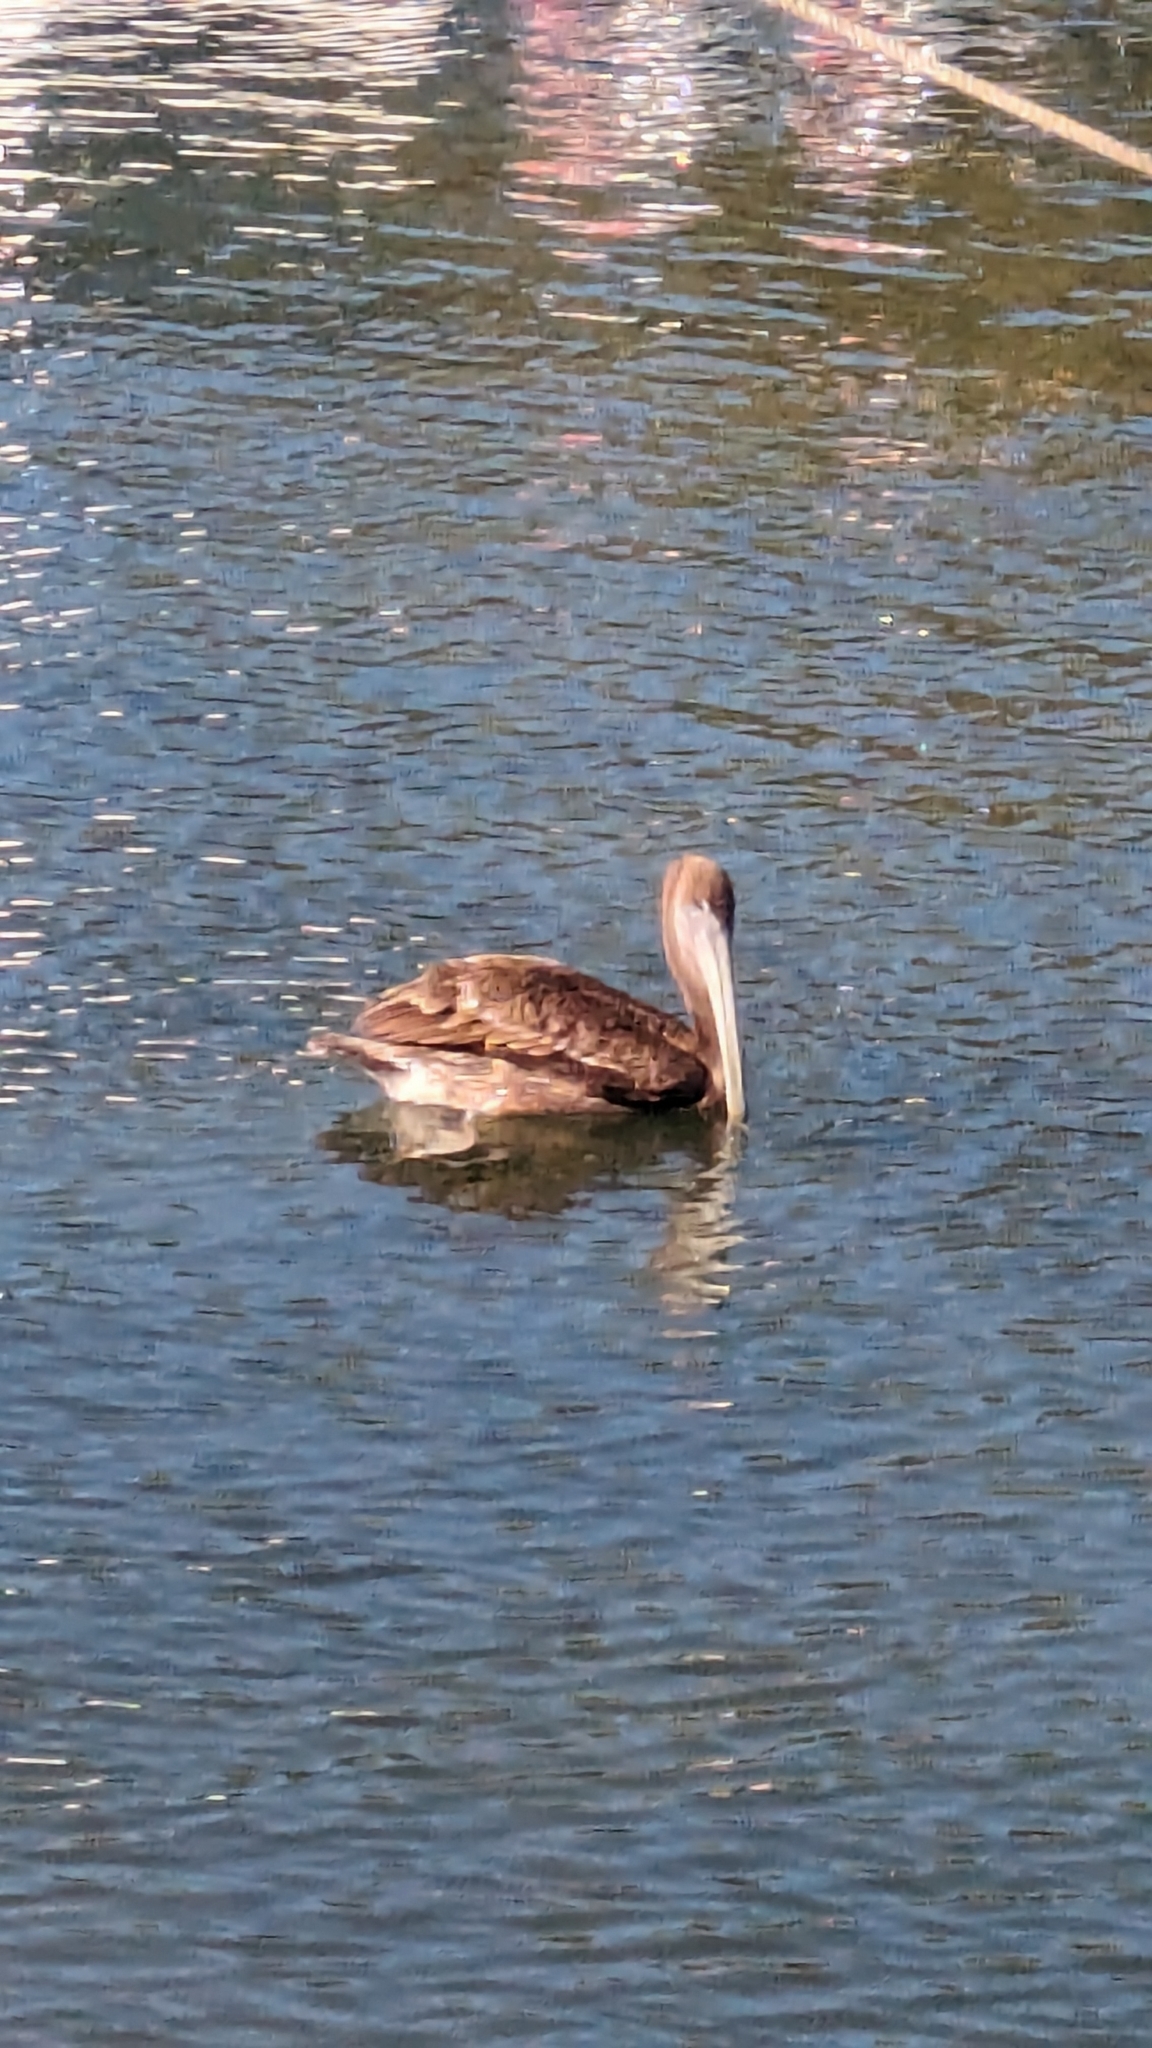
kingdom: Animalia
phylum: Chordata
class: Aves
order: Pelecaniformes
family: Pelecanidae
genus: Pelecanus
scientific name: Pelecanus occidentalis
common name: Brown pelican
